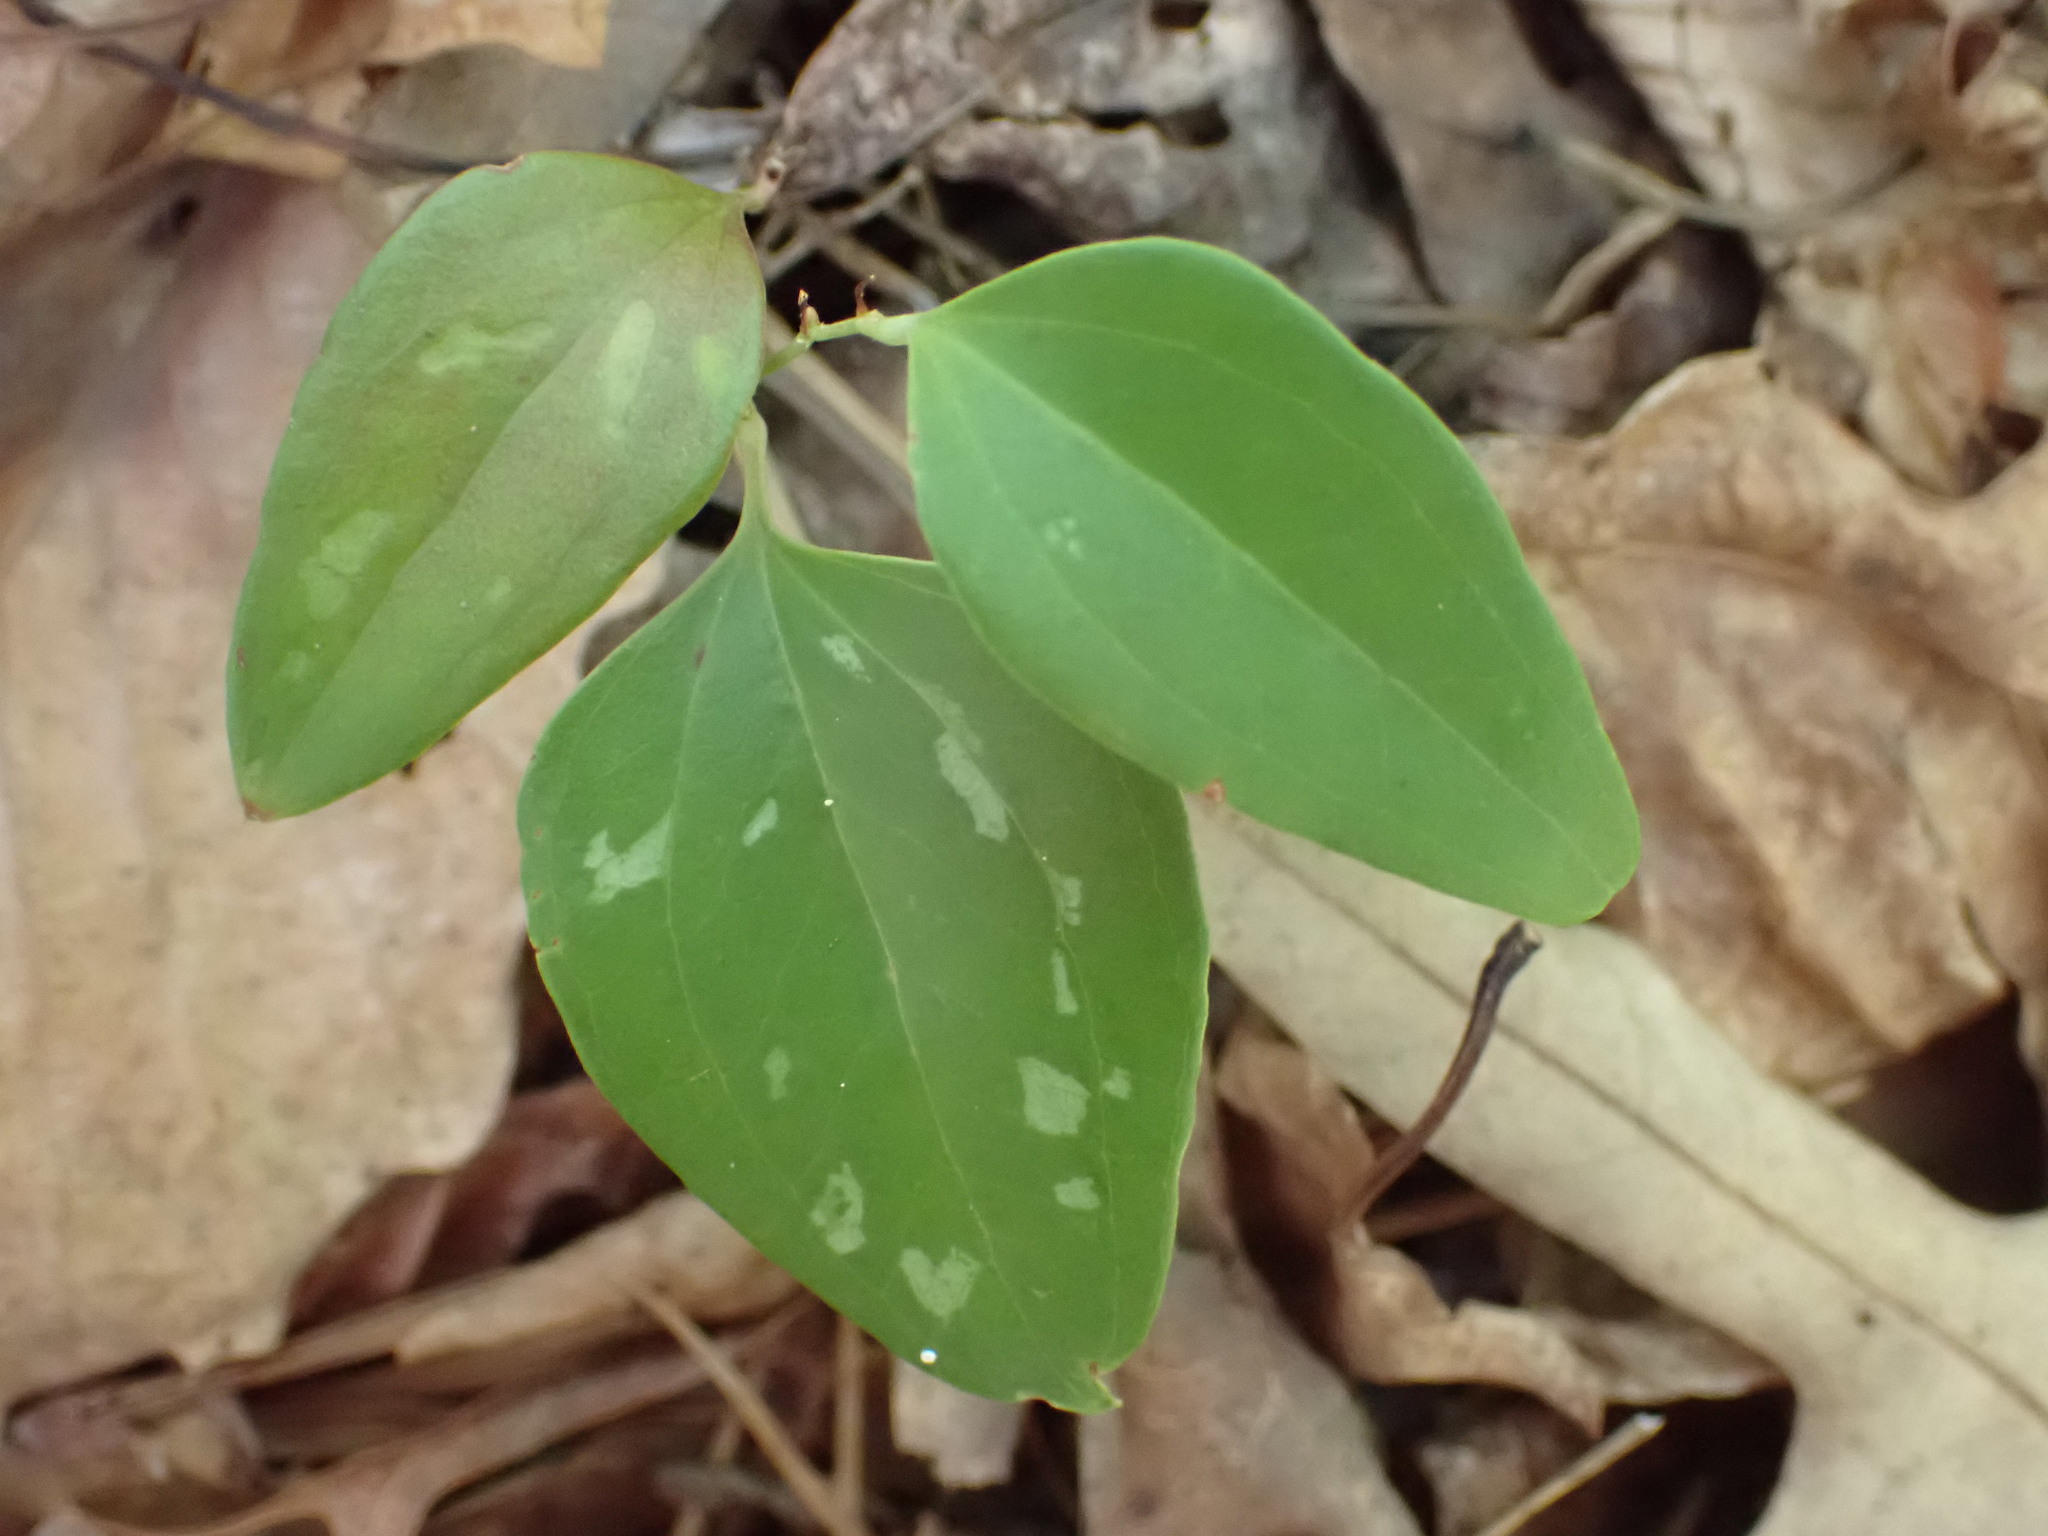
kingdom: Plantae
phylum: Tracheophyta
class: Liliopsida
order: Liliales
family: Smilacaceae
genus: Smilax
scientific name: Smilax glauca
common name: Cat greenbrier
